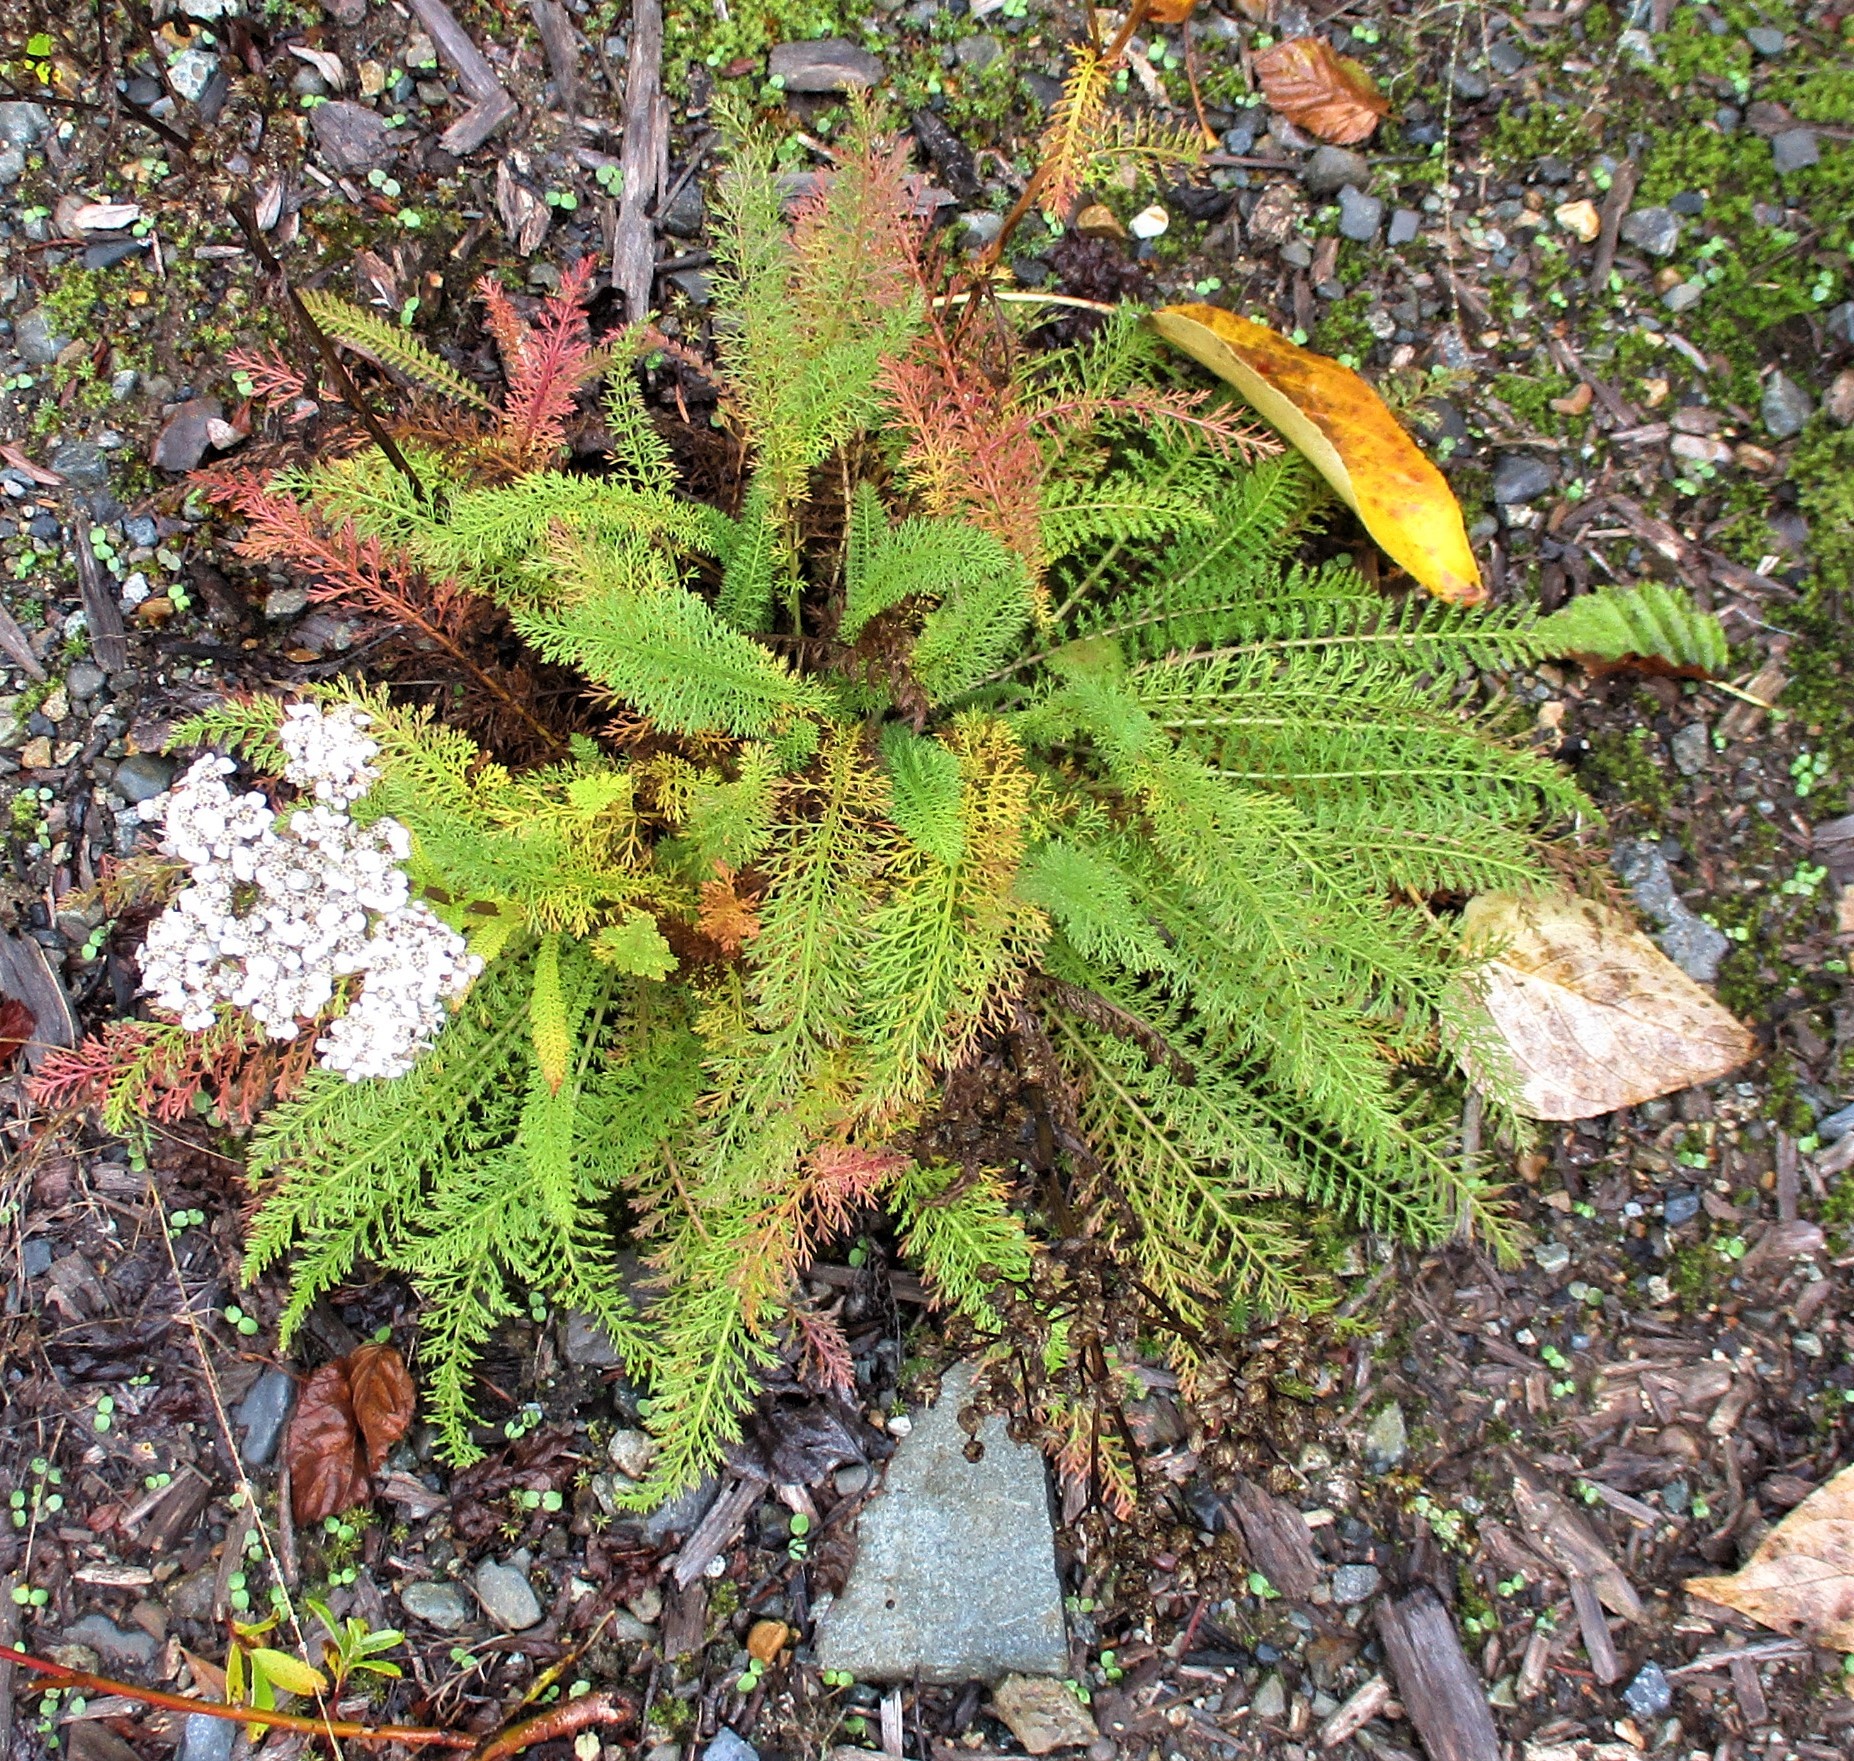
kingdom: Plantae
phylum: Tracheophyta
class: Magnoliopsida
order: Asterales
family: Asteraceae
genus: Achillea
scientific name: Achillea millefolium
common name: Yarrow
